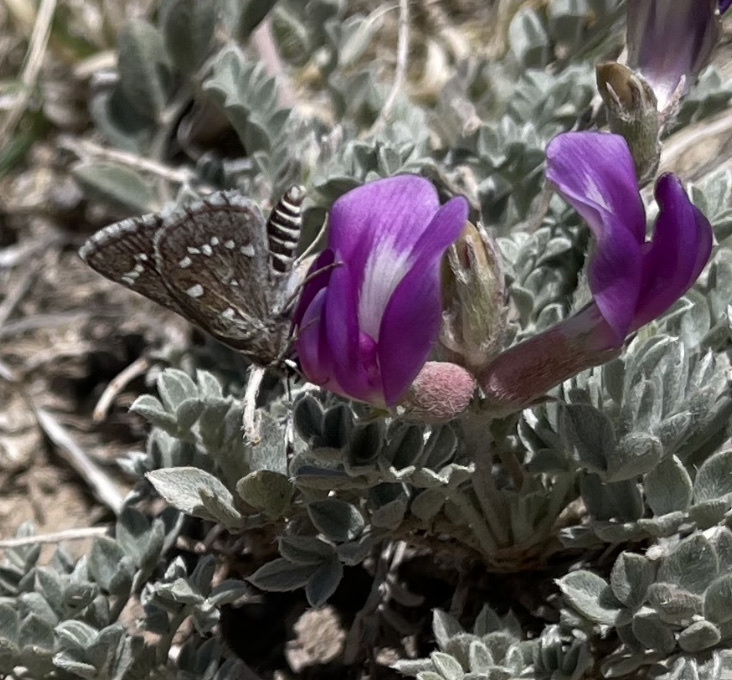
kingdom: Animalia
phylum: Arthropoda
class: Insecta
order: Lepidoptera
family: Hesperiidae
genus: Mastor
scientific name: Mastor eos
